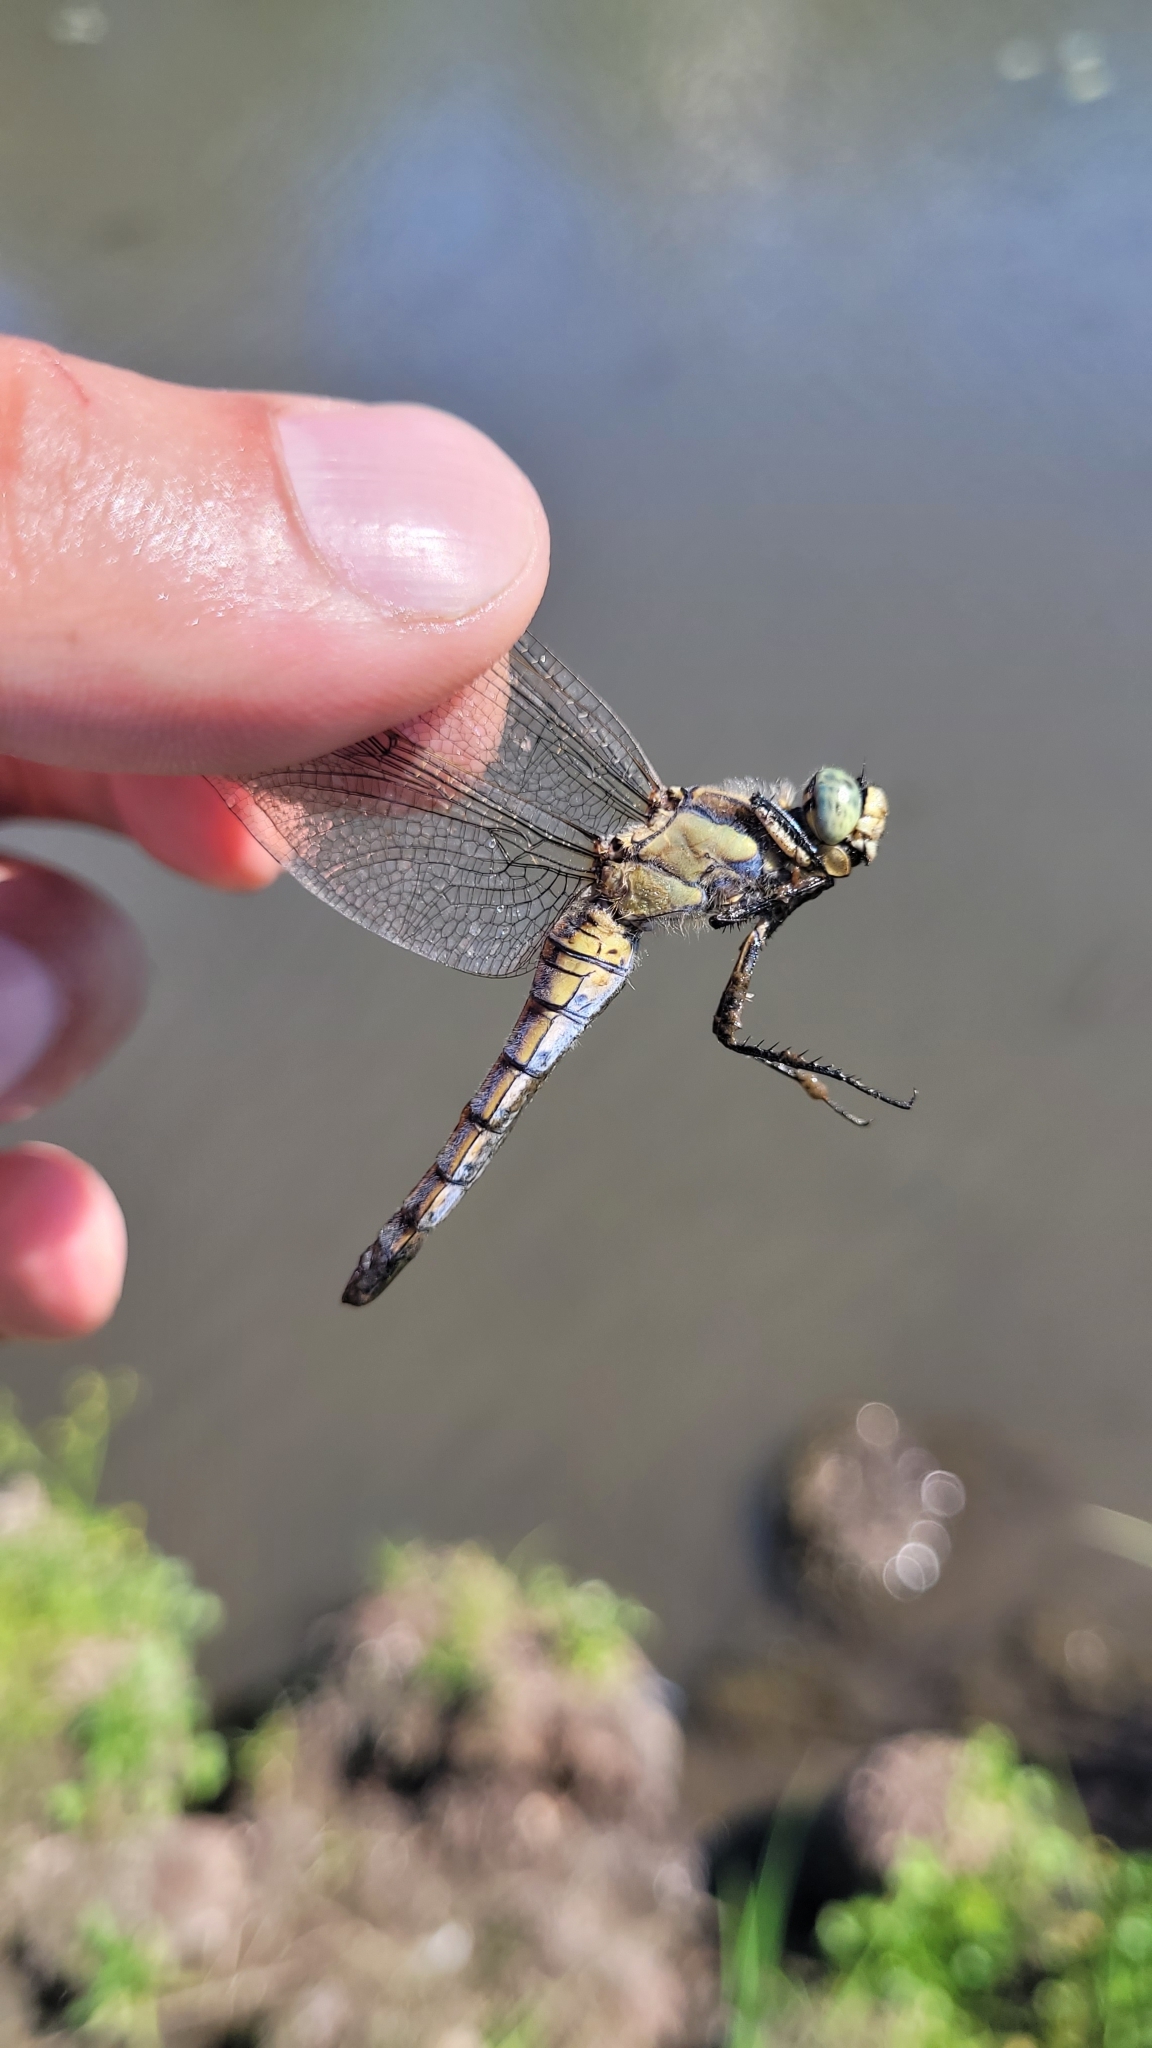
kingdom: Animalia
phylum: Arthropoda
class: Insecta
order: Odonata
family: Libellulidae
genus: Orthetrum
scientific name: Orthetrum cancellatum
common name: Black-tailed skimmer
